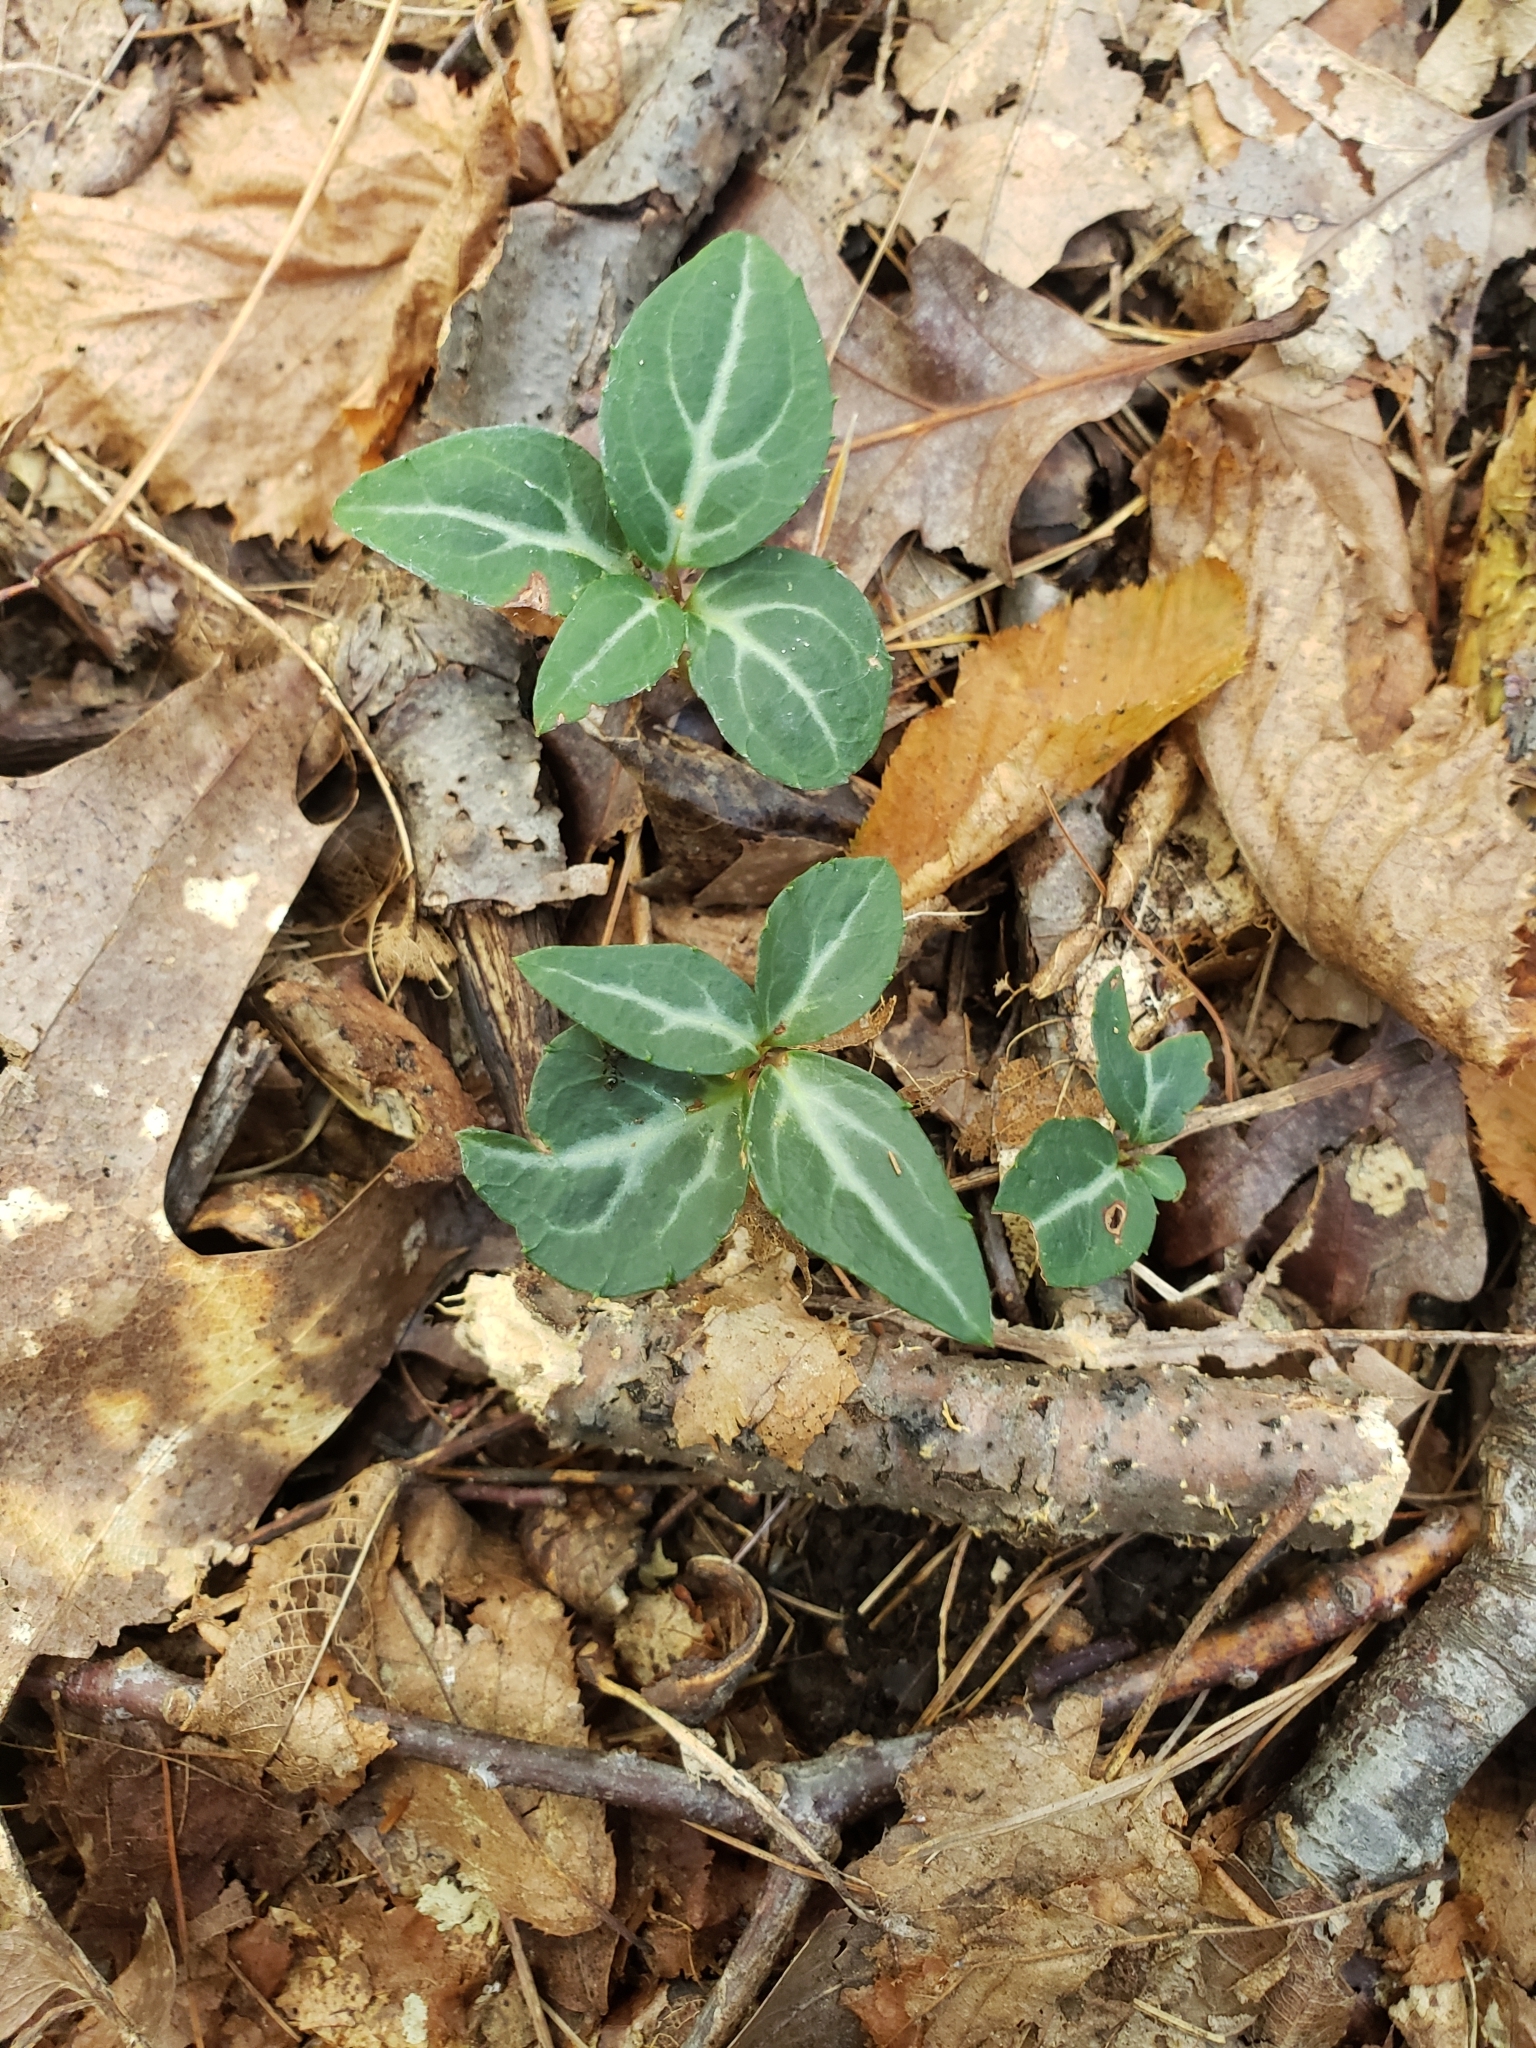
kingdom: Plantae
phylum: Tracheophyta
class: Magnoliopsida
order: Ericales
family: Ericaceae
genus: Chimaphila
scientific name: Chimaphila maculata
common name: Spotted pipsissewa
